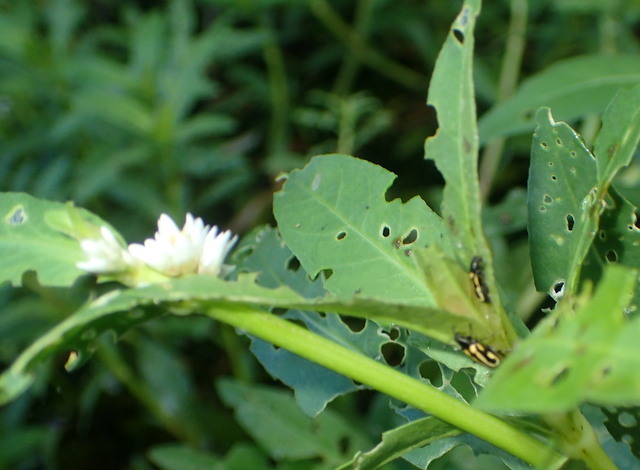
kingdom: Animalia
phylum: Arthropoda
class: Insecta
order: Coleoptera
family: Chrysomelidae
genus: Agasicles
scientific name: Agasicles hygrophila
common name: Alligatorweed flea beetle
